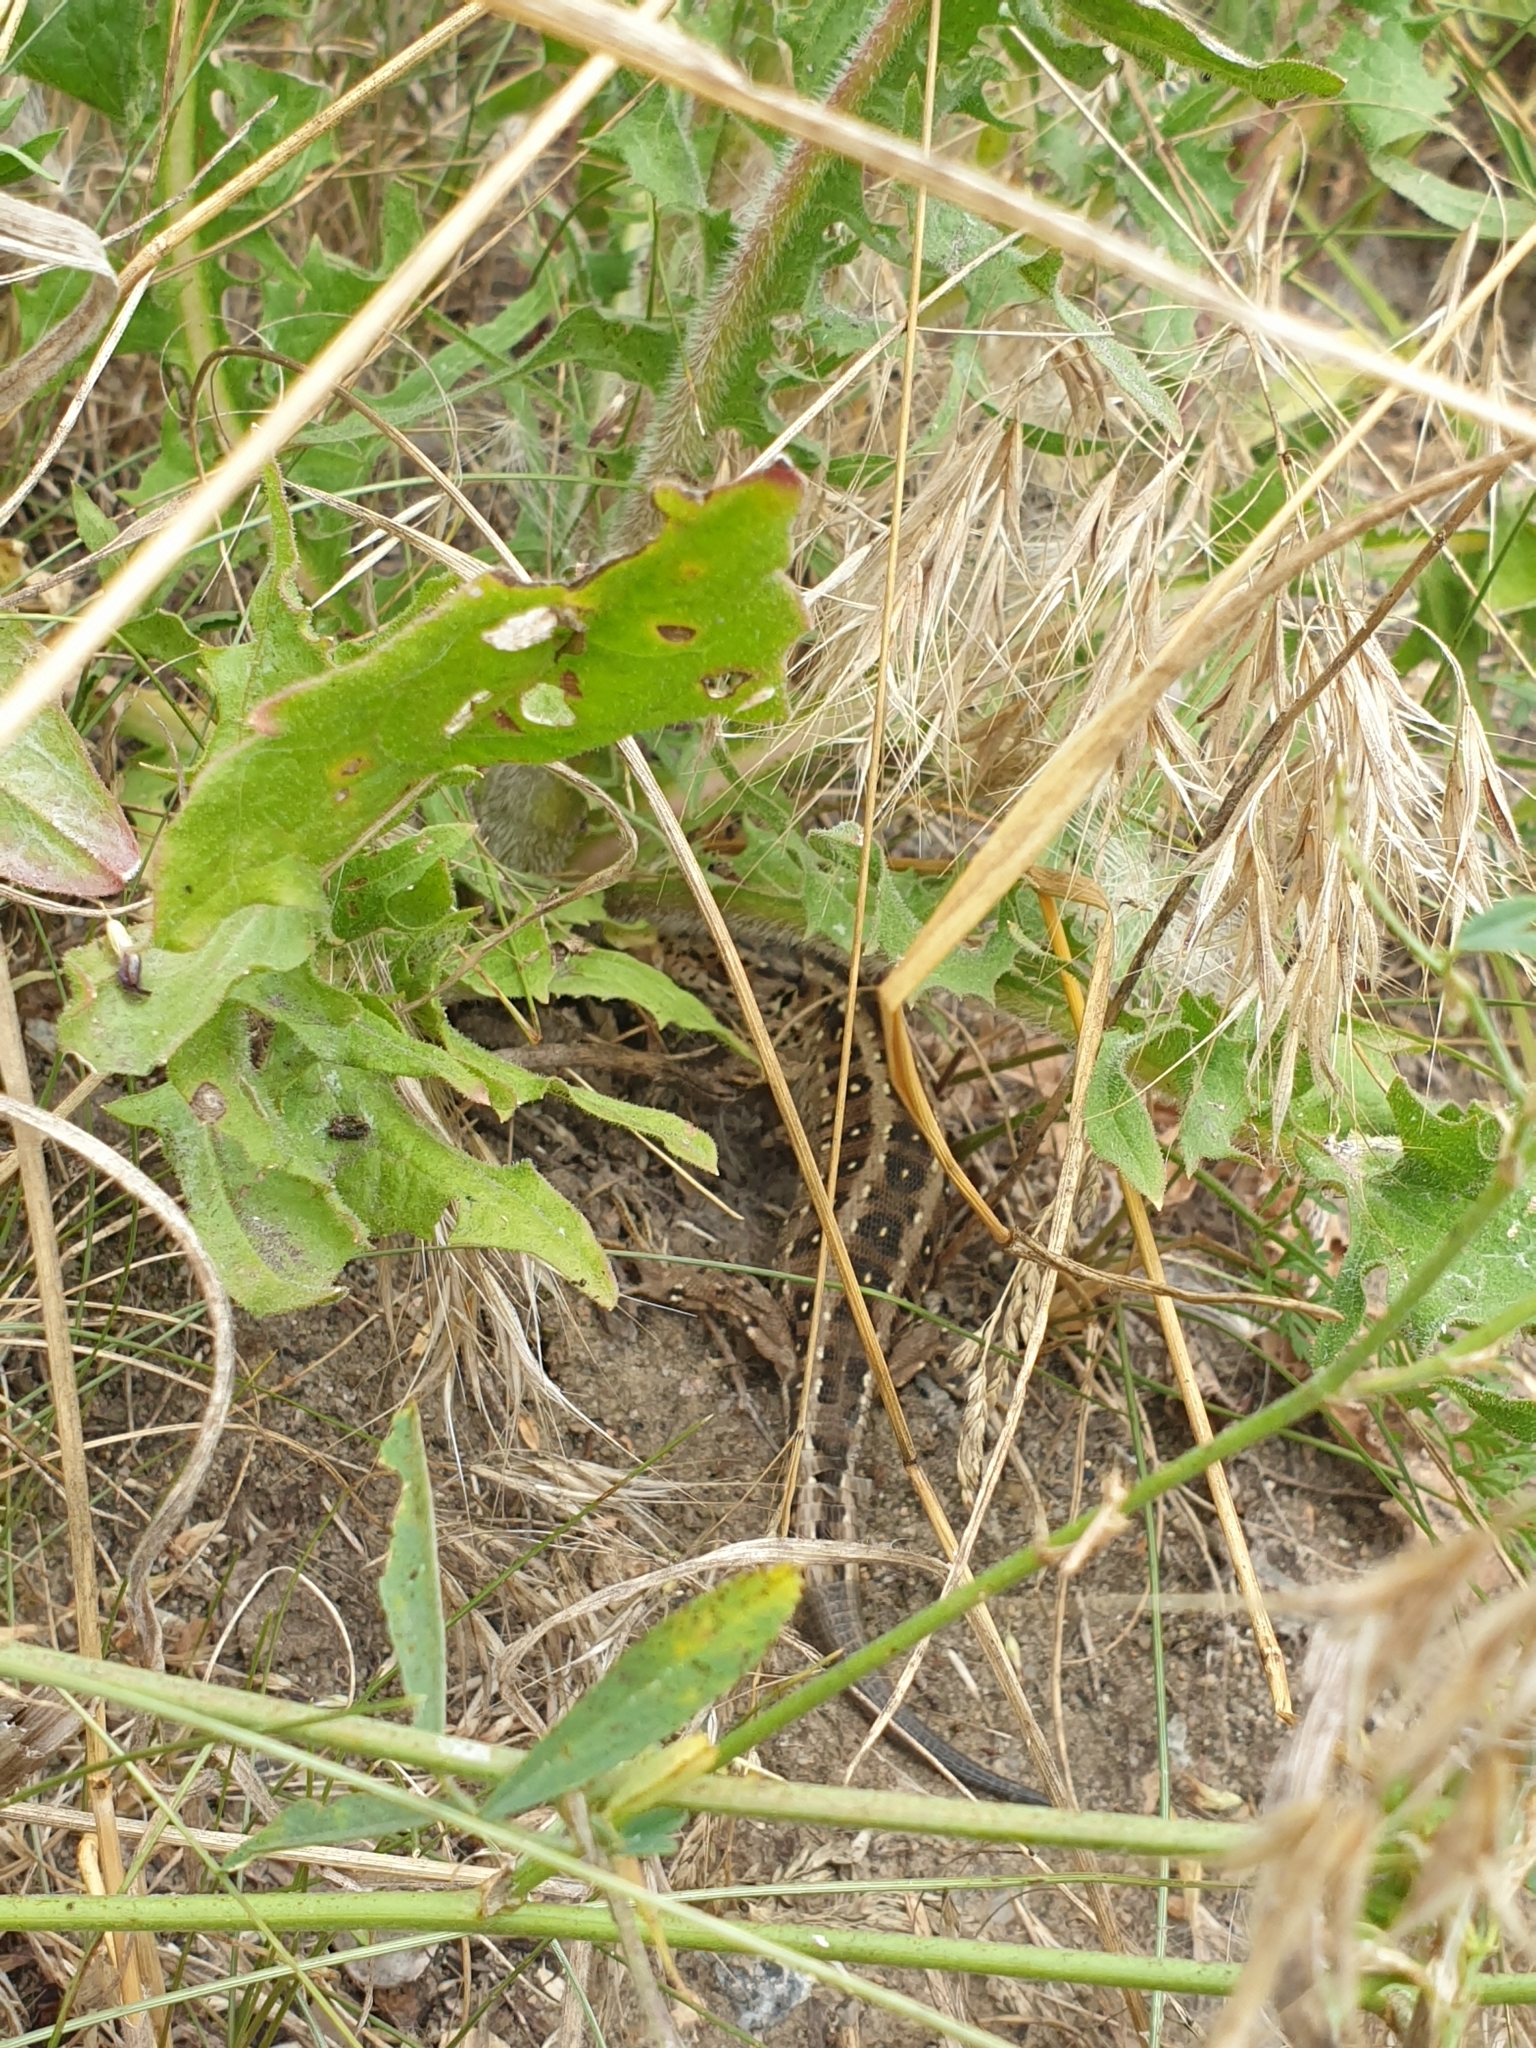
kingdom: Animalia
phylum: Chordata
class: Squamata
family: Lacertidae
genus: Lacerta
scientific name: Lacerta agilis
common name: Sand lizard
